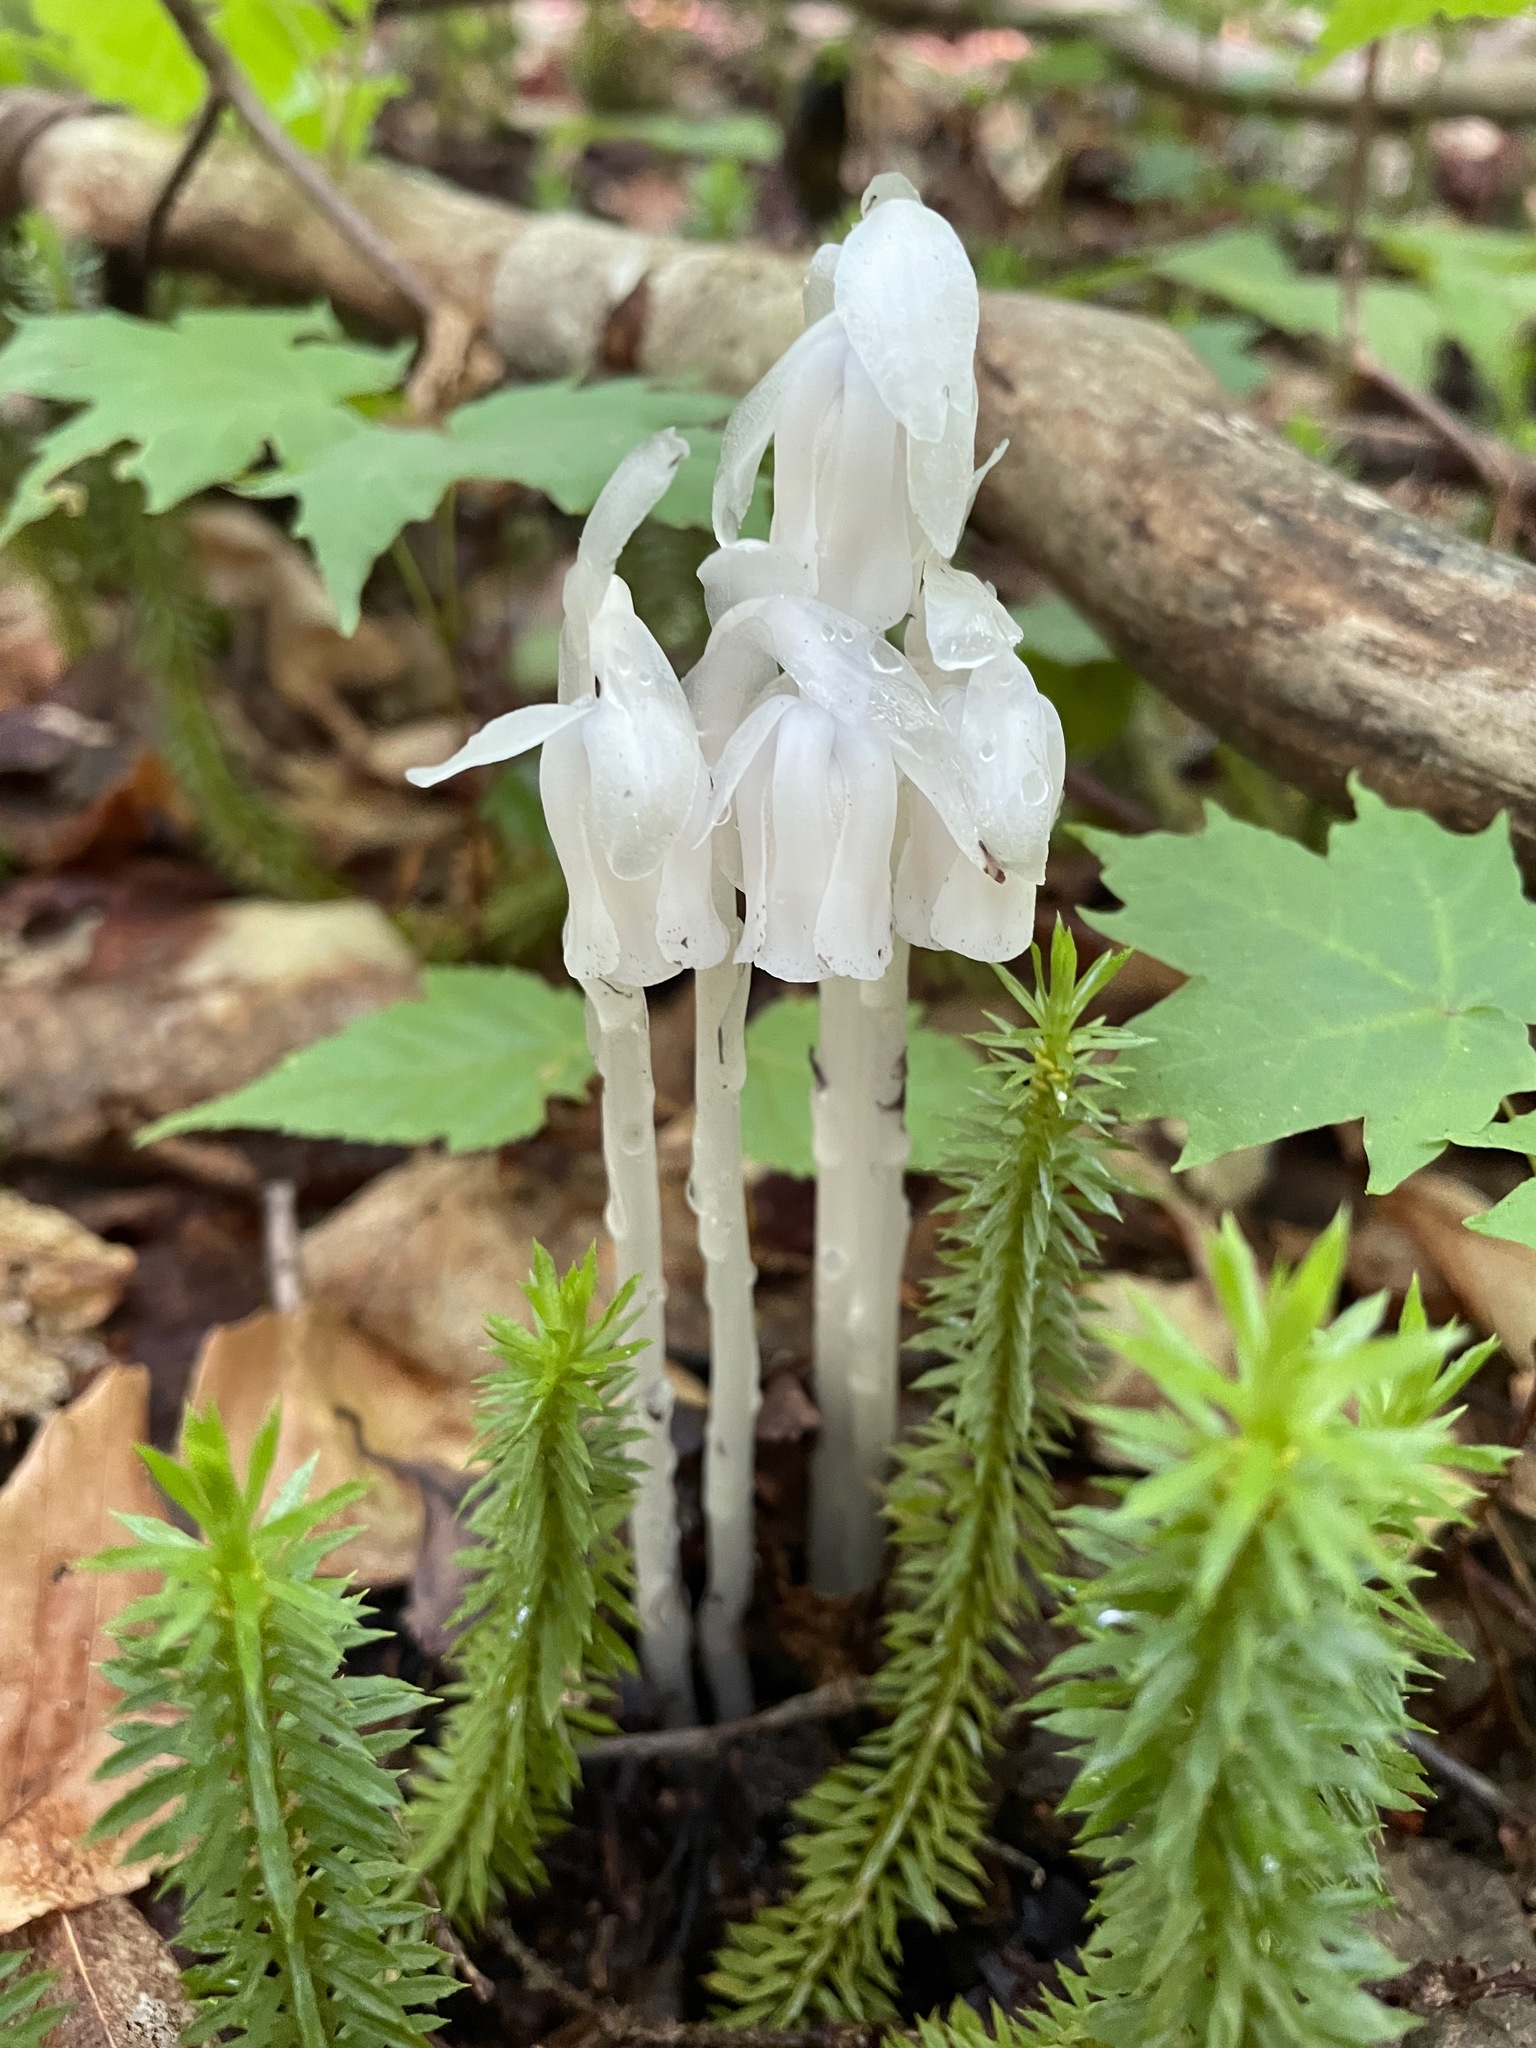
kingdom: Plantae
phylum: Tracheophyta
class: Magnoliopsida
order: Ericales
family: Ericaceae
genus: Monotropa
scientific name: Monotropa uniflora
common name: Convulsion root
